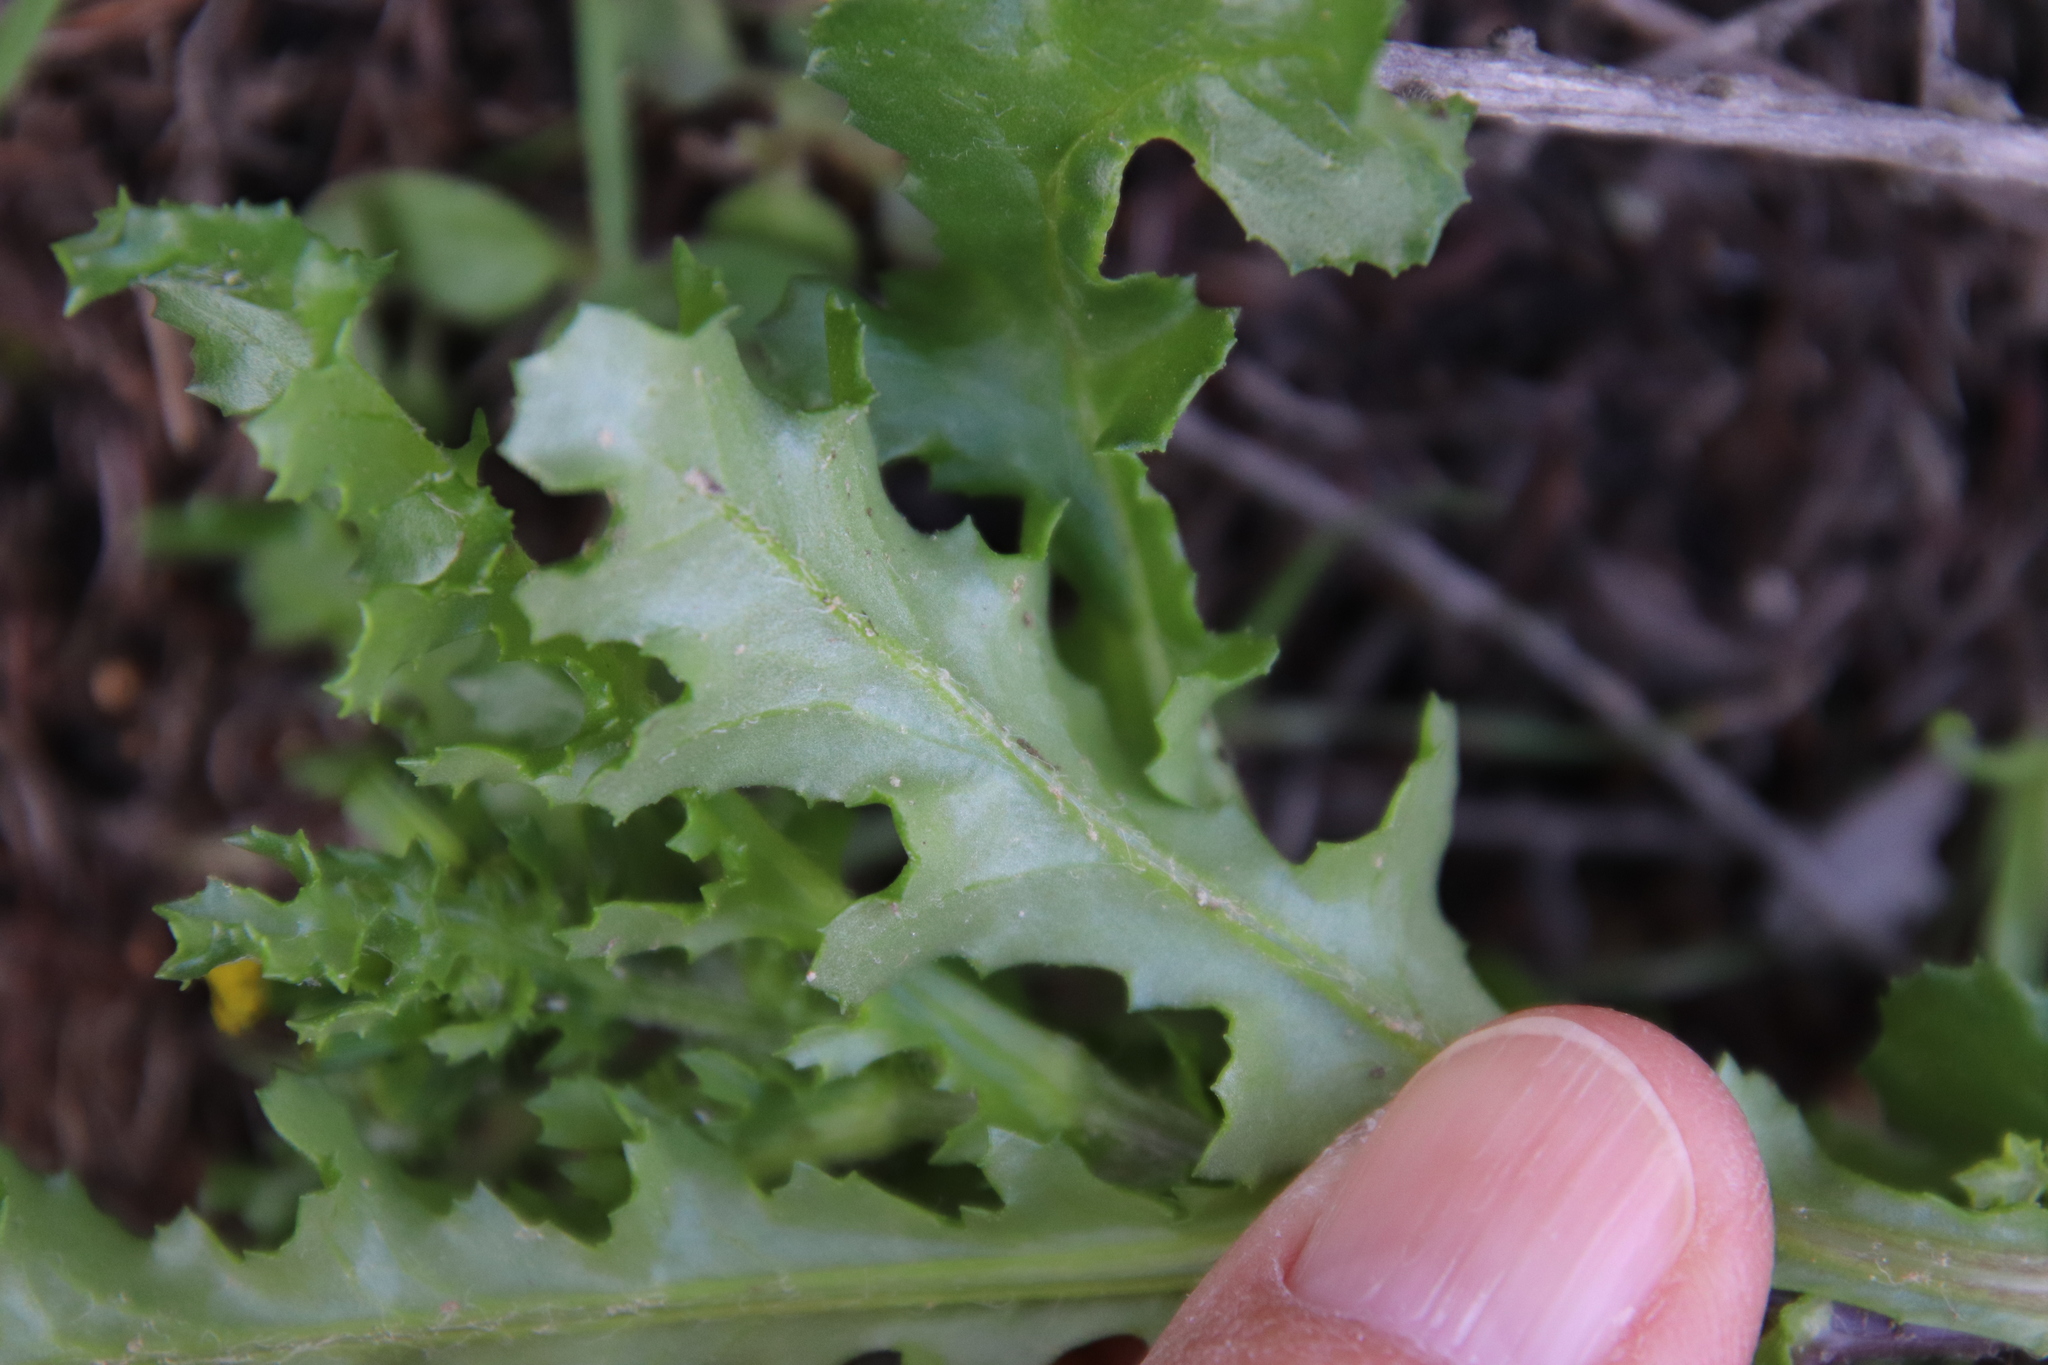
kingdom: Plantae
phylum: Tracheophyta
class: Magnoliopsida
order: Asterales
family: Asteraceae
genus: Senecio
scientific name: Senecio vulgaris
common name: Old-man-in-the-spring
